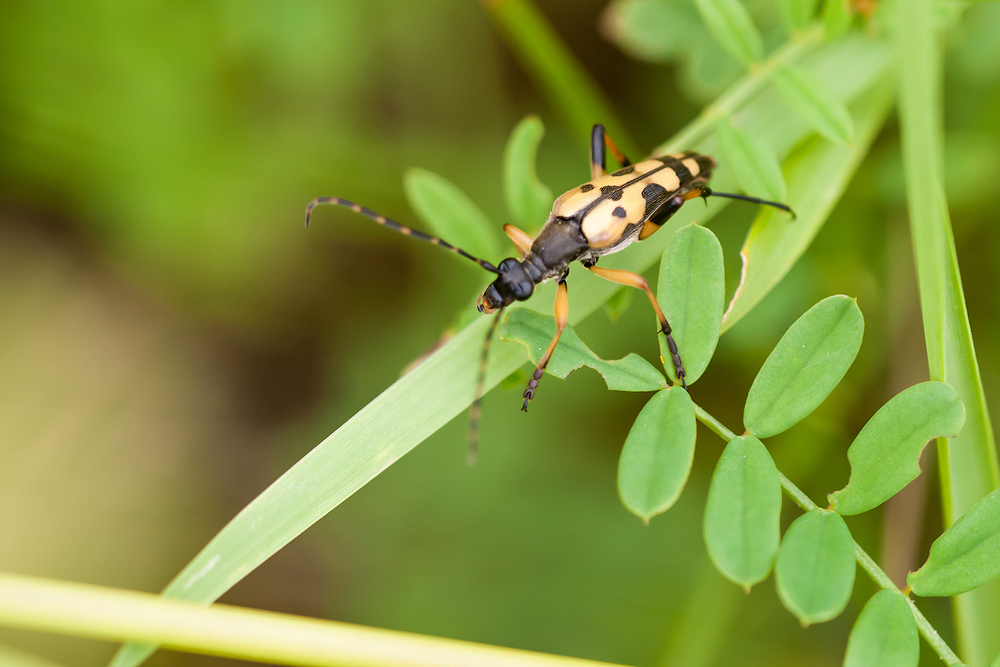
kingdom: Animalia
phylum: Arthropoda
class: Insecta
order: Coleoptera
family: Cerambycidae
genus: Rutpela
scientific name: Rutpela maculata
